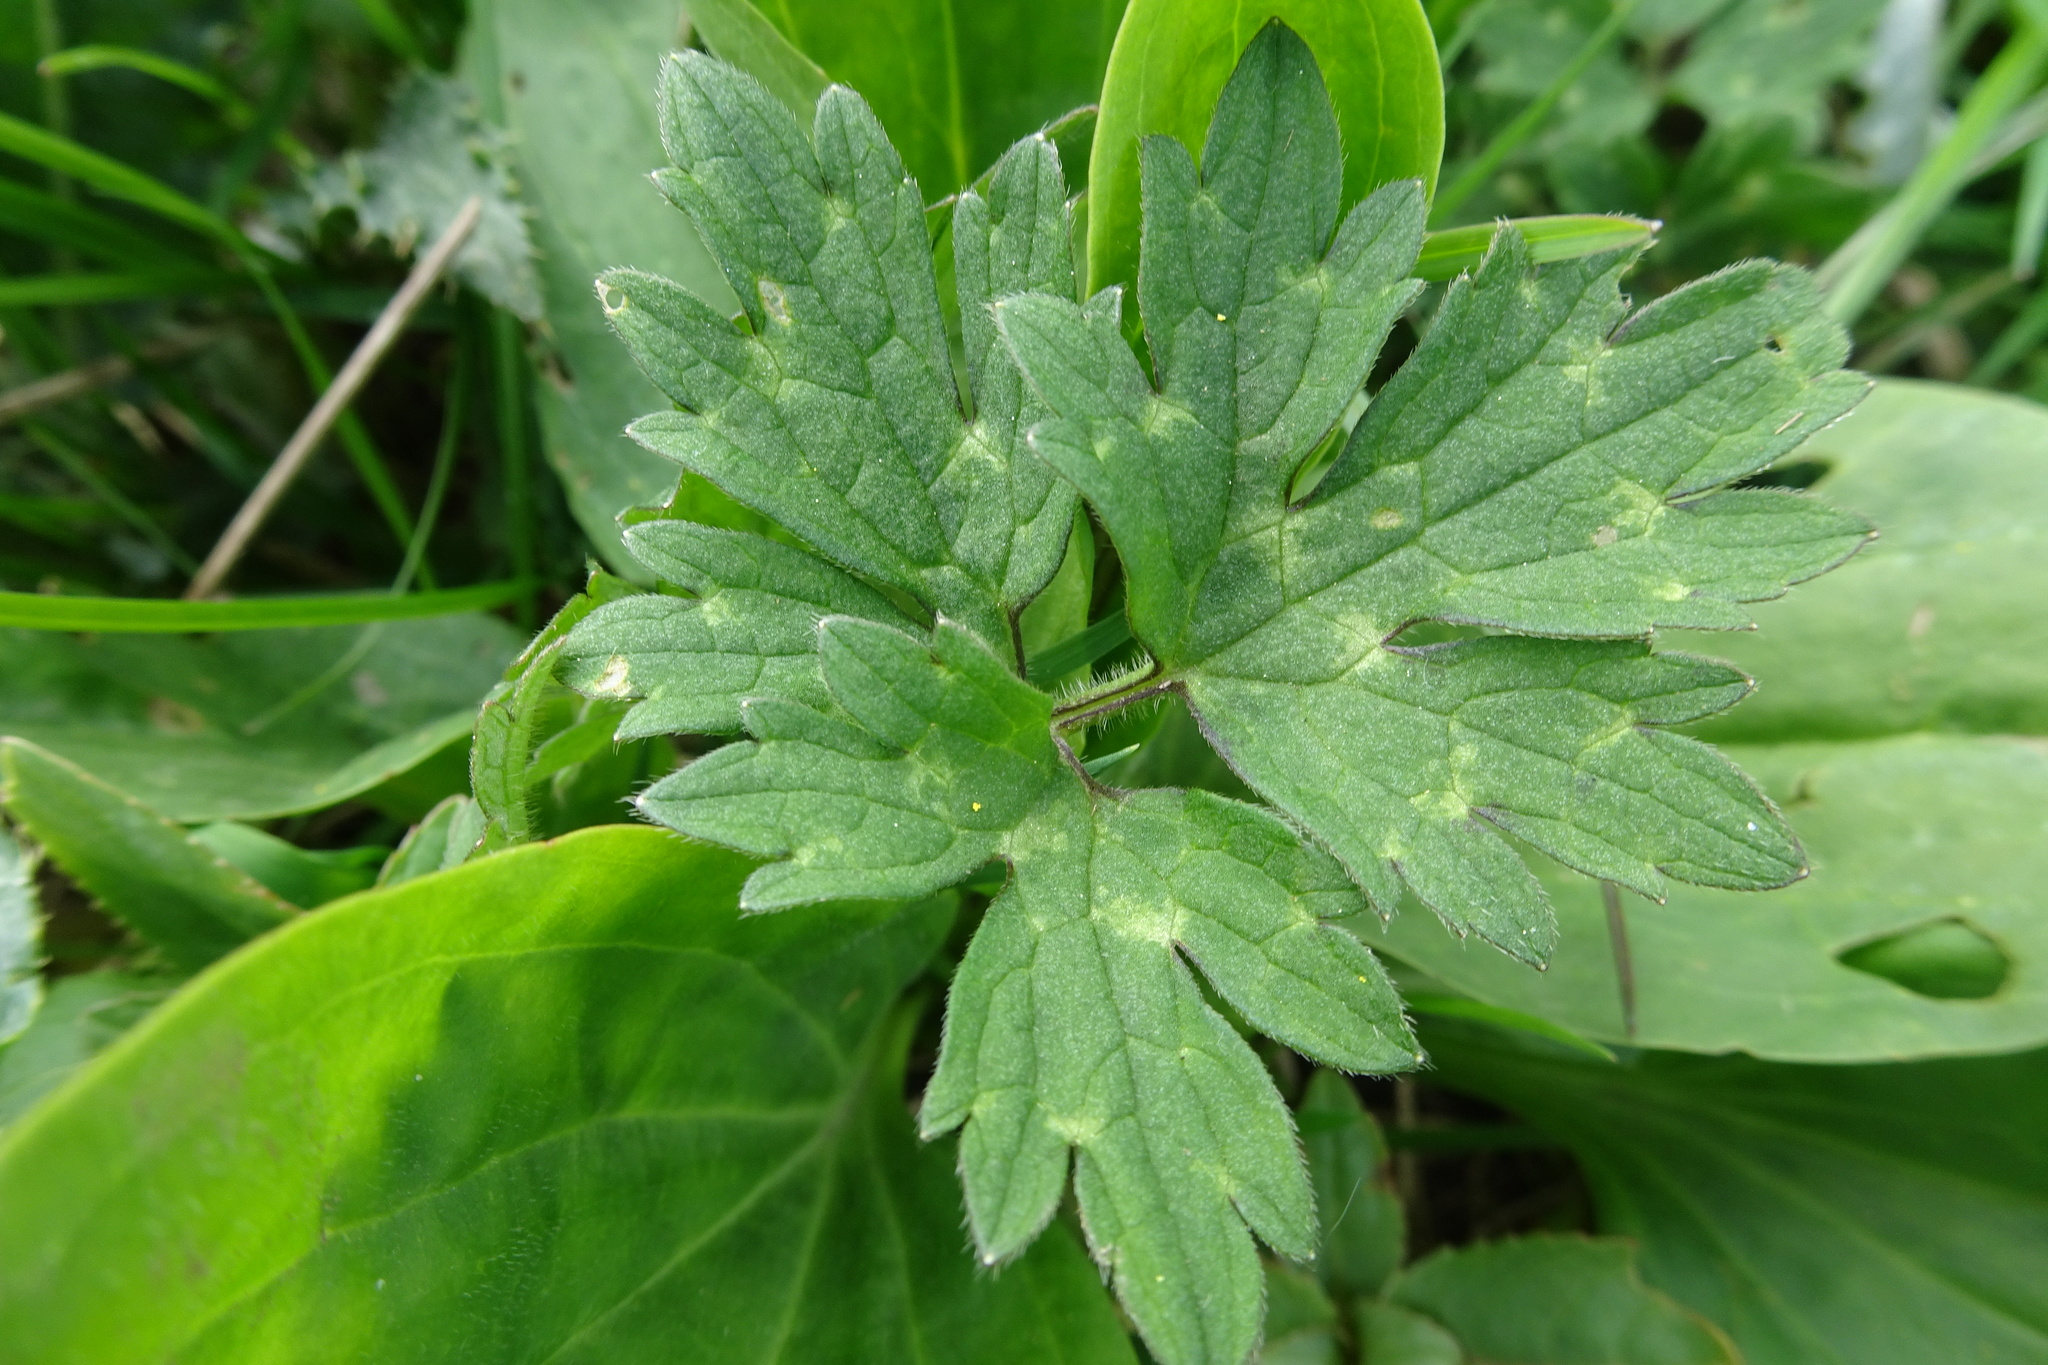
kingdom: Plantae
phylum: Tracheophyta
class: Magnoliopsida
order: Ranunculales
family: Ranunculaceae
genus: Ranunculus
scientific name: Ranunculus repens
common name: Creeping buttercup
